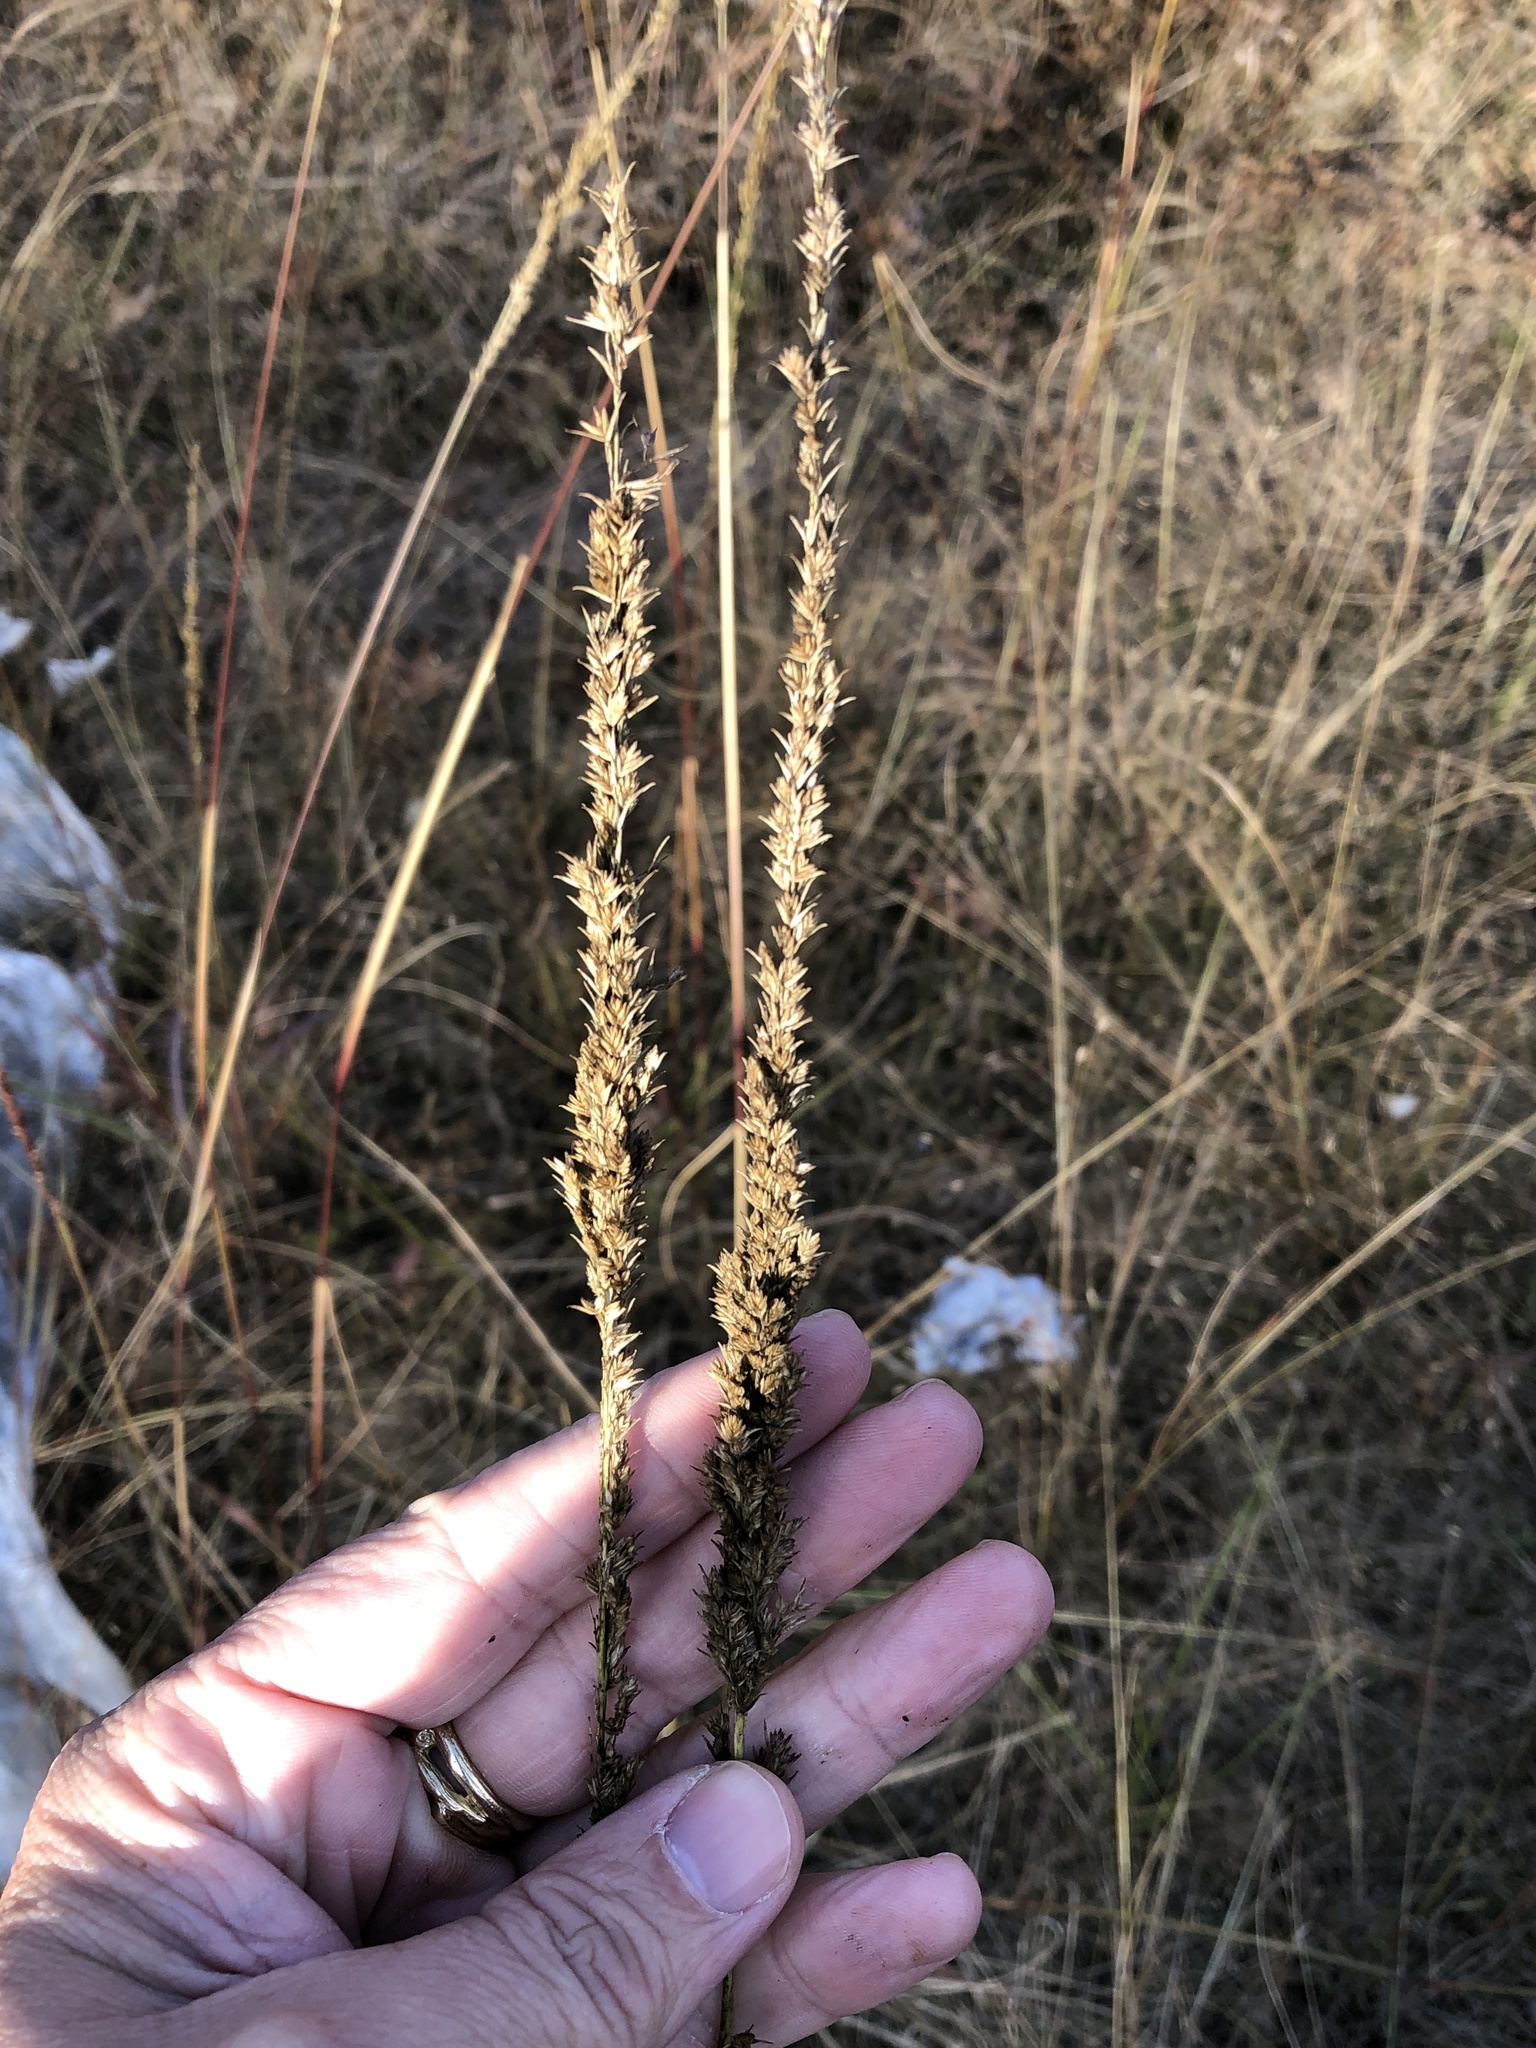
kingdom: Plantae
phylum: Tracheophyta
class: Liliopsida
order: Poales
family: Poaceae
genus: Tridens
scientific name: Tridens strictus
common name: Long-spike tridens
